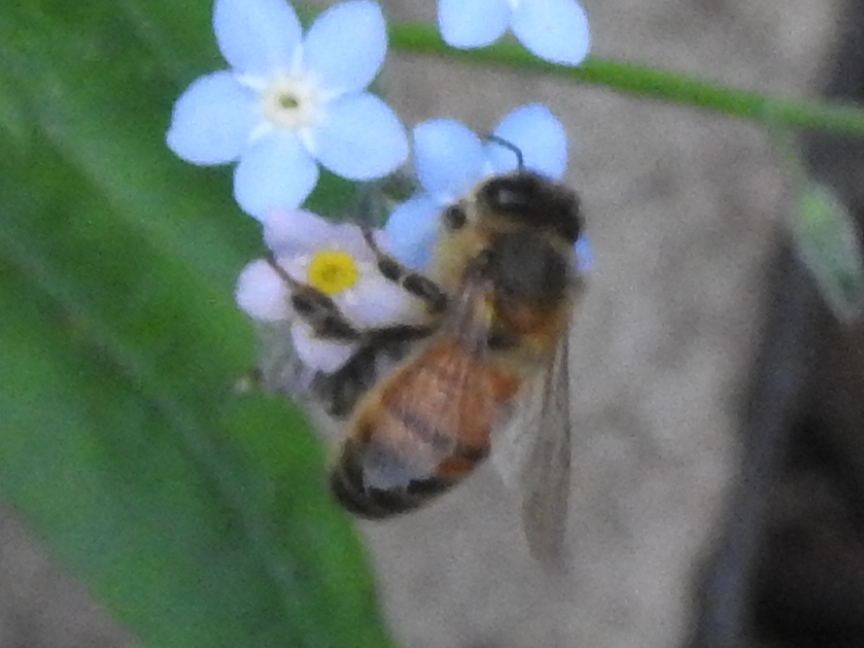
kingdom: Animalia
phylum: Arthropoda
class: Insecta
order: Hymenoptera
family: Apidae
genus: Apis
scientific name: Apis mellifera
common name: Honey bee
